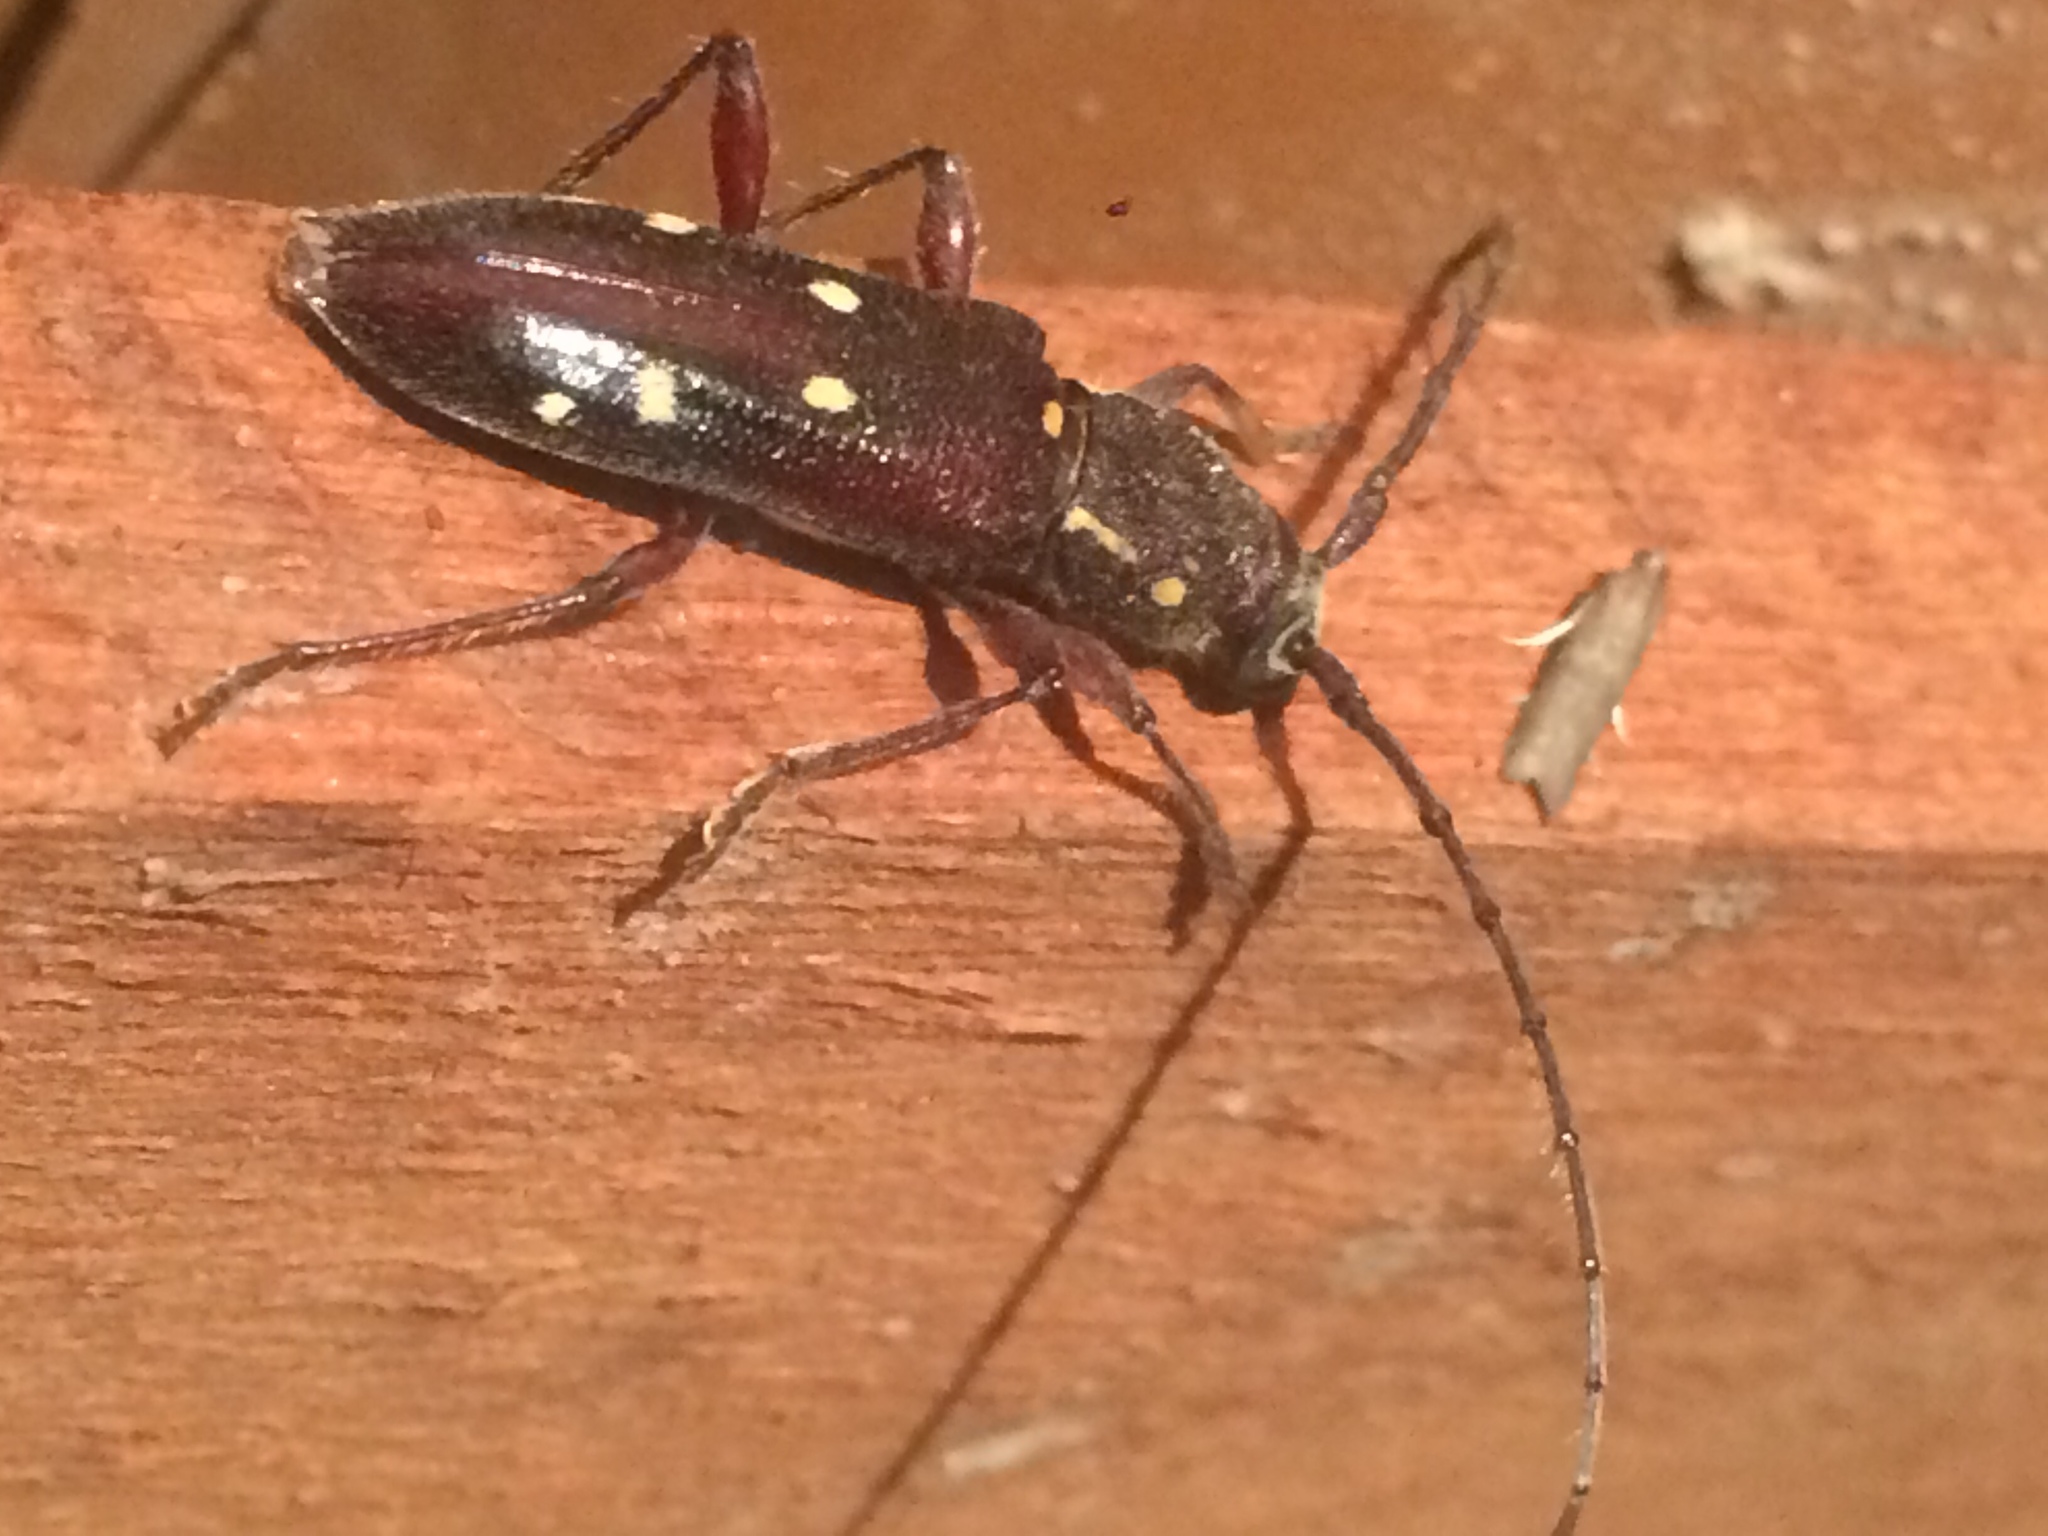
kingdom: Animalia
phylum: Arthropoda
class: Insecta
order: Coleoptera
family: Cerambycidae
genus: Ambonus
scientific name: Ambonus electus
